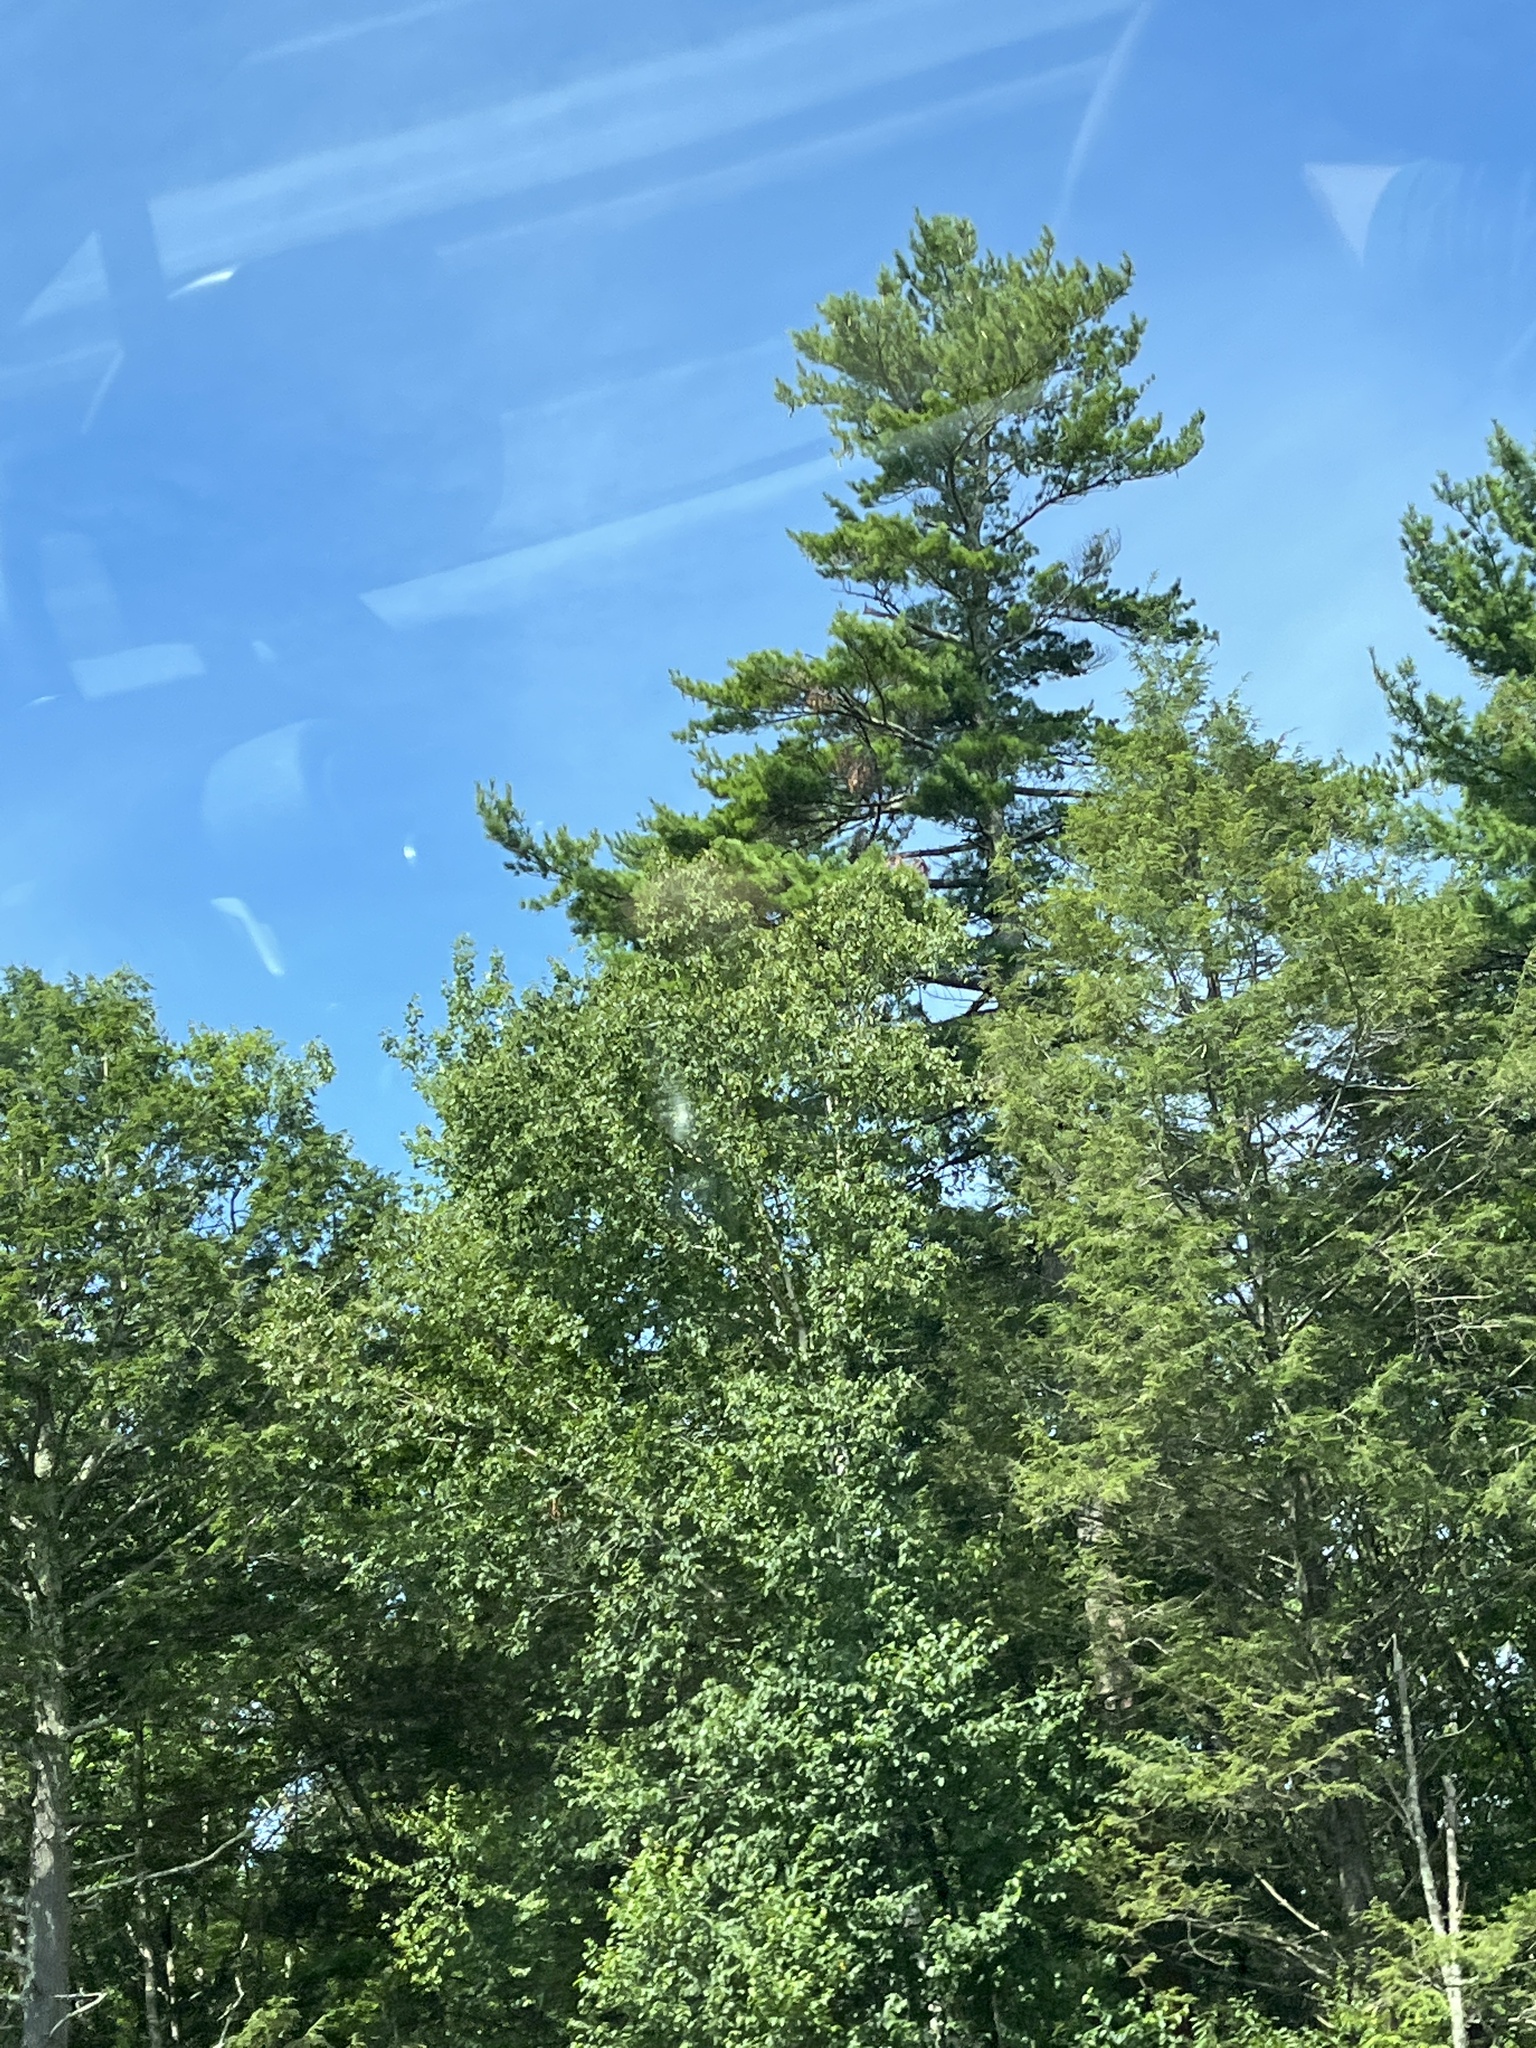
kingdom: Plantae
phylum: Tracheophyta
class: Pinopsida
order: Pinales
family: Pinaceae
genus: Pinus
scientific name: Pinus strobus
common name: Weymouth pine
